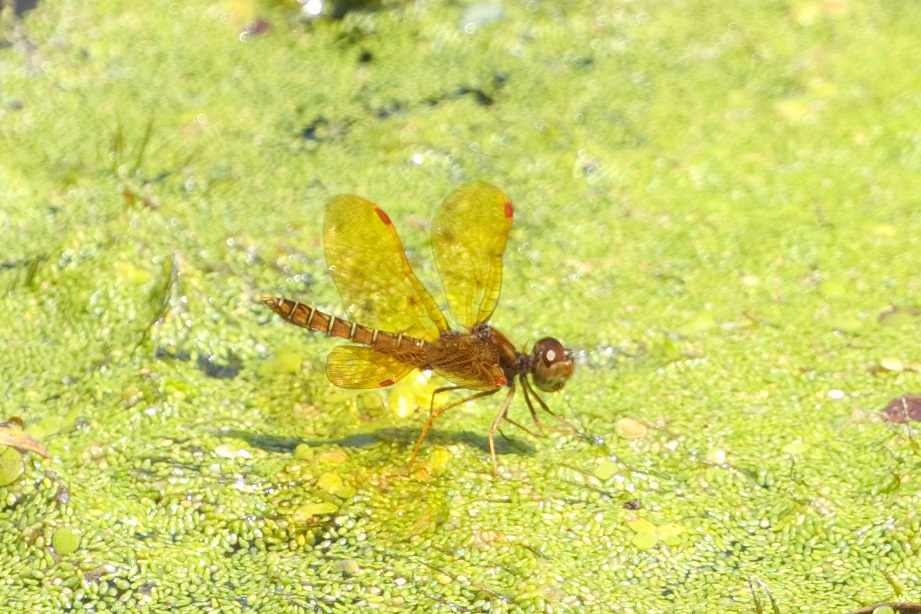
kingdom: Animalia
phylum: Arthropoda
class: Insecta
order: Odonata
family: Libellulidae
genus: Perithemis
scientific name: Perithemis tenera
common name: Eastern amberwing
